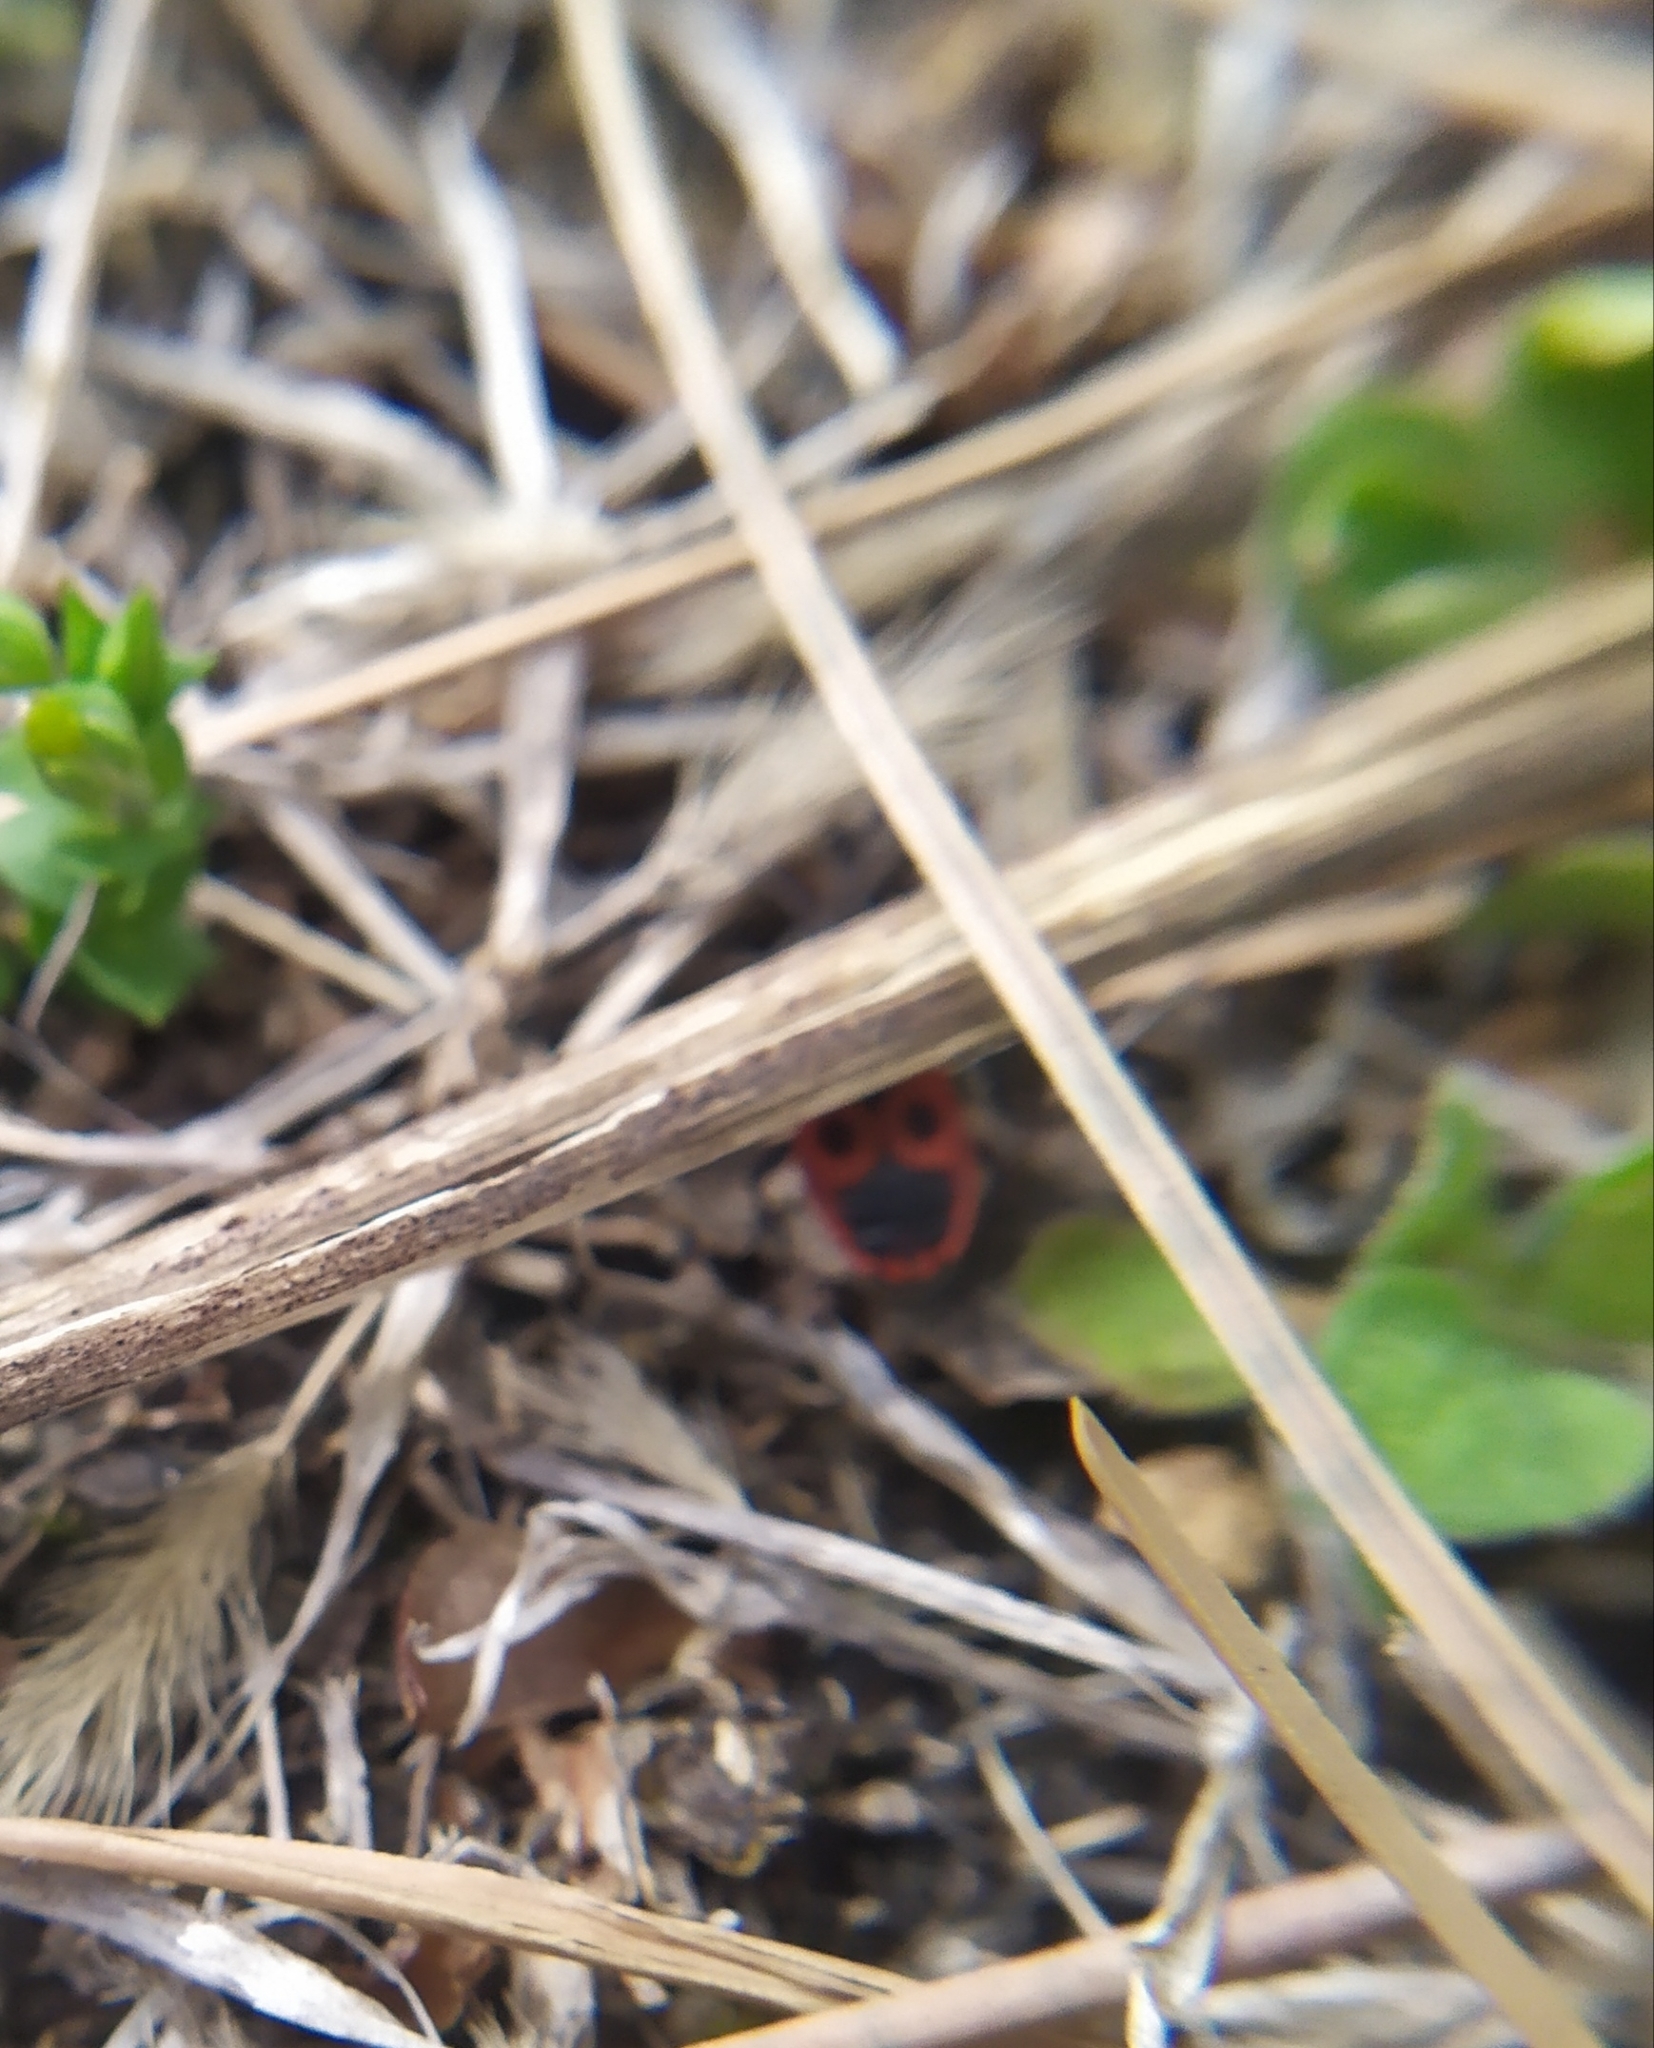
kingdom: Animalia
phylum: Arthropoda
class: Insecta
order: Hemiptera
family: Pyrrhocoridae
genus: Pyrrhocoris
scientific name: Pyrrhocoris apterus
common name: Firebug
